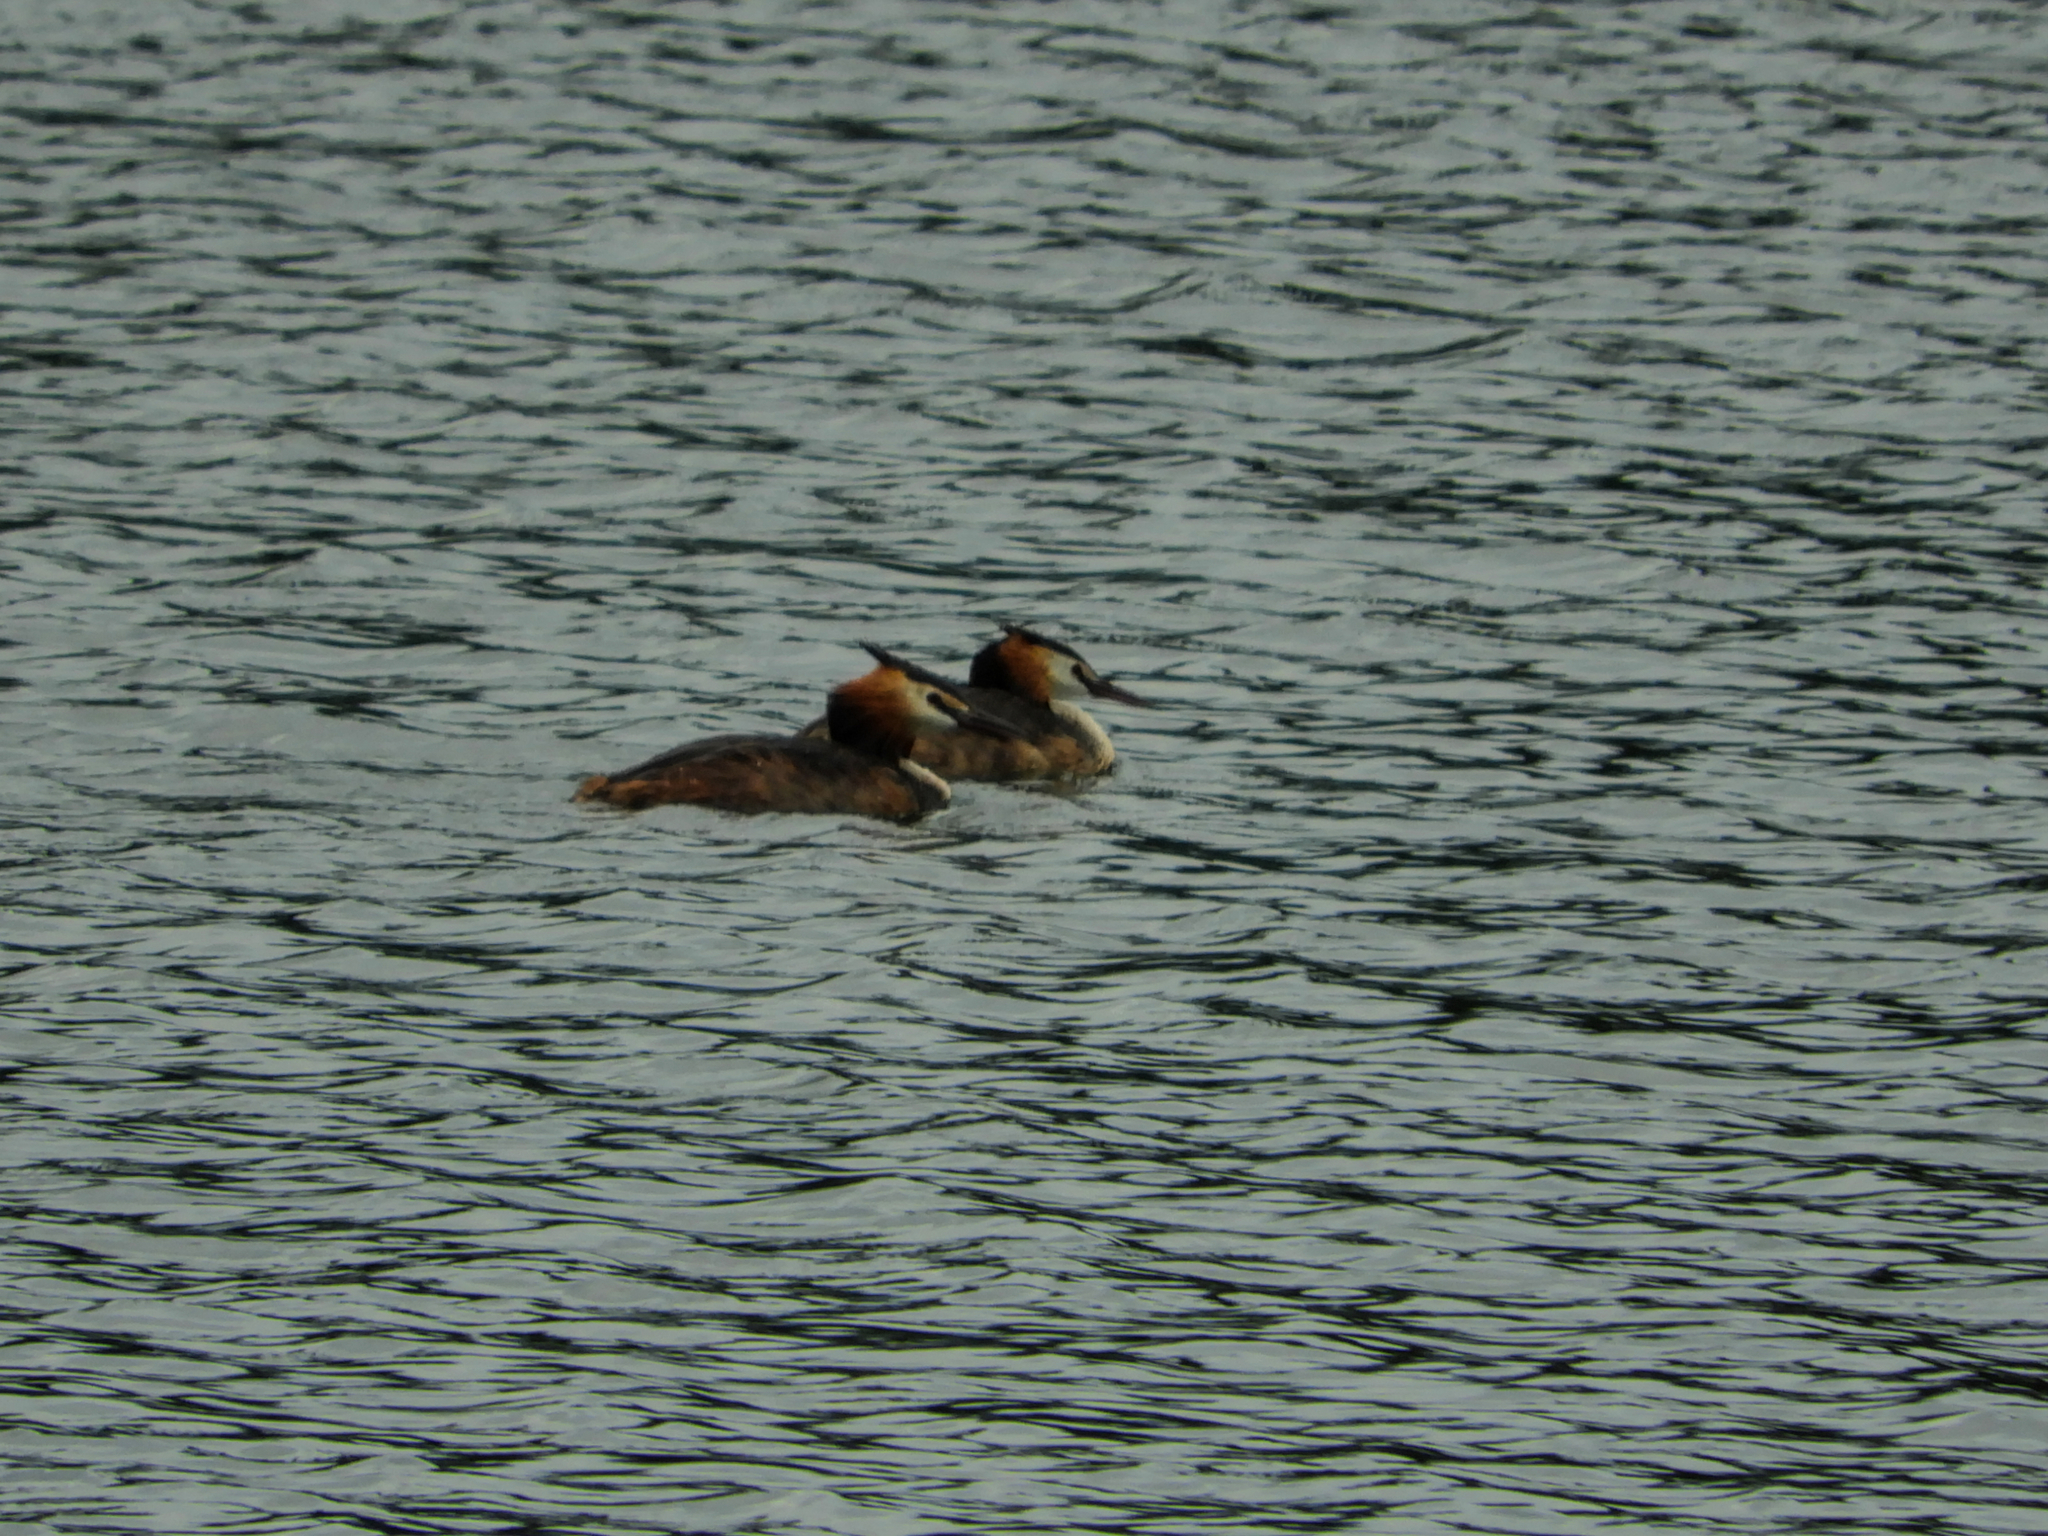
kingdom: Animalia
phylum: Chordata
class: Aves
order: Podicipediformes
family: Podicipedidae
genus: Podiceps
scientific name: Podiceps cristatus
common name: Great crested grebe
